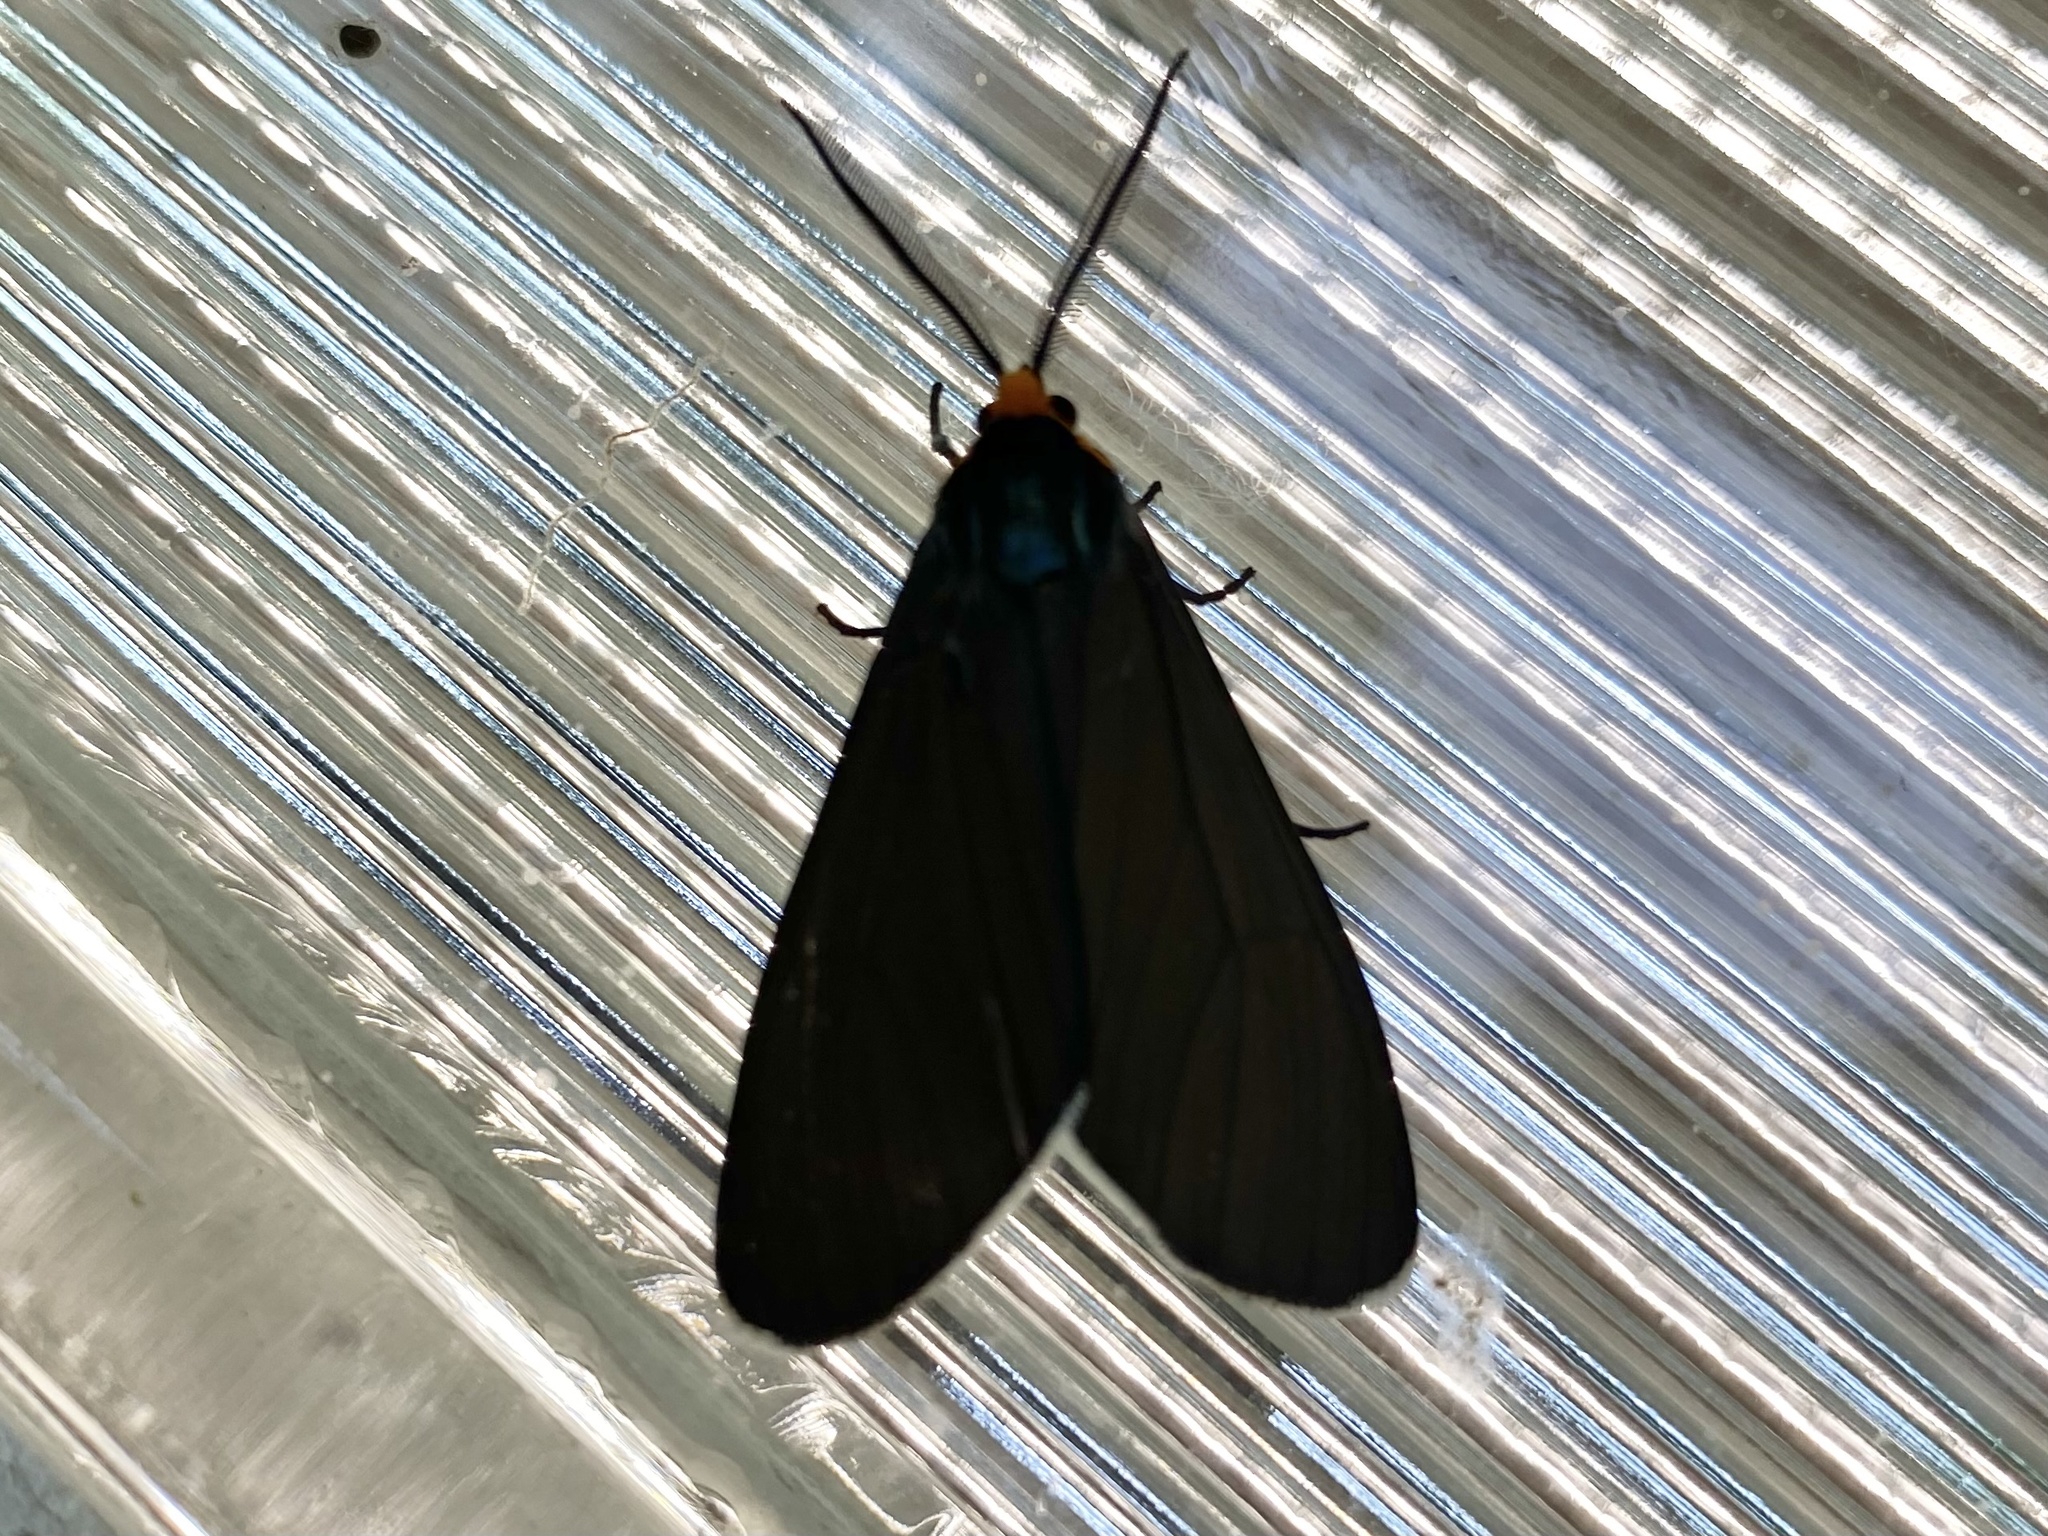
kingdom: Animalia
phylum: Arthropoda
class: Insecta
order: Lepidoptera
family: Erebidae
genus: Ctenucha
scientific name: Ctenucha virginica
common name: Virginia ctenucha moth
